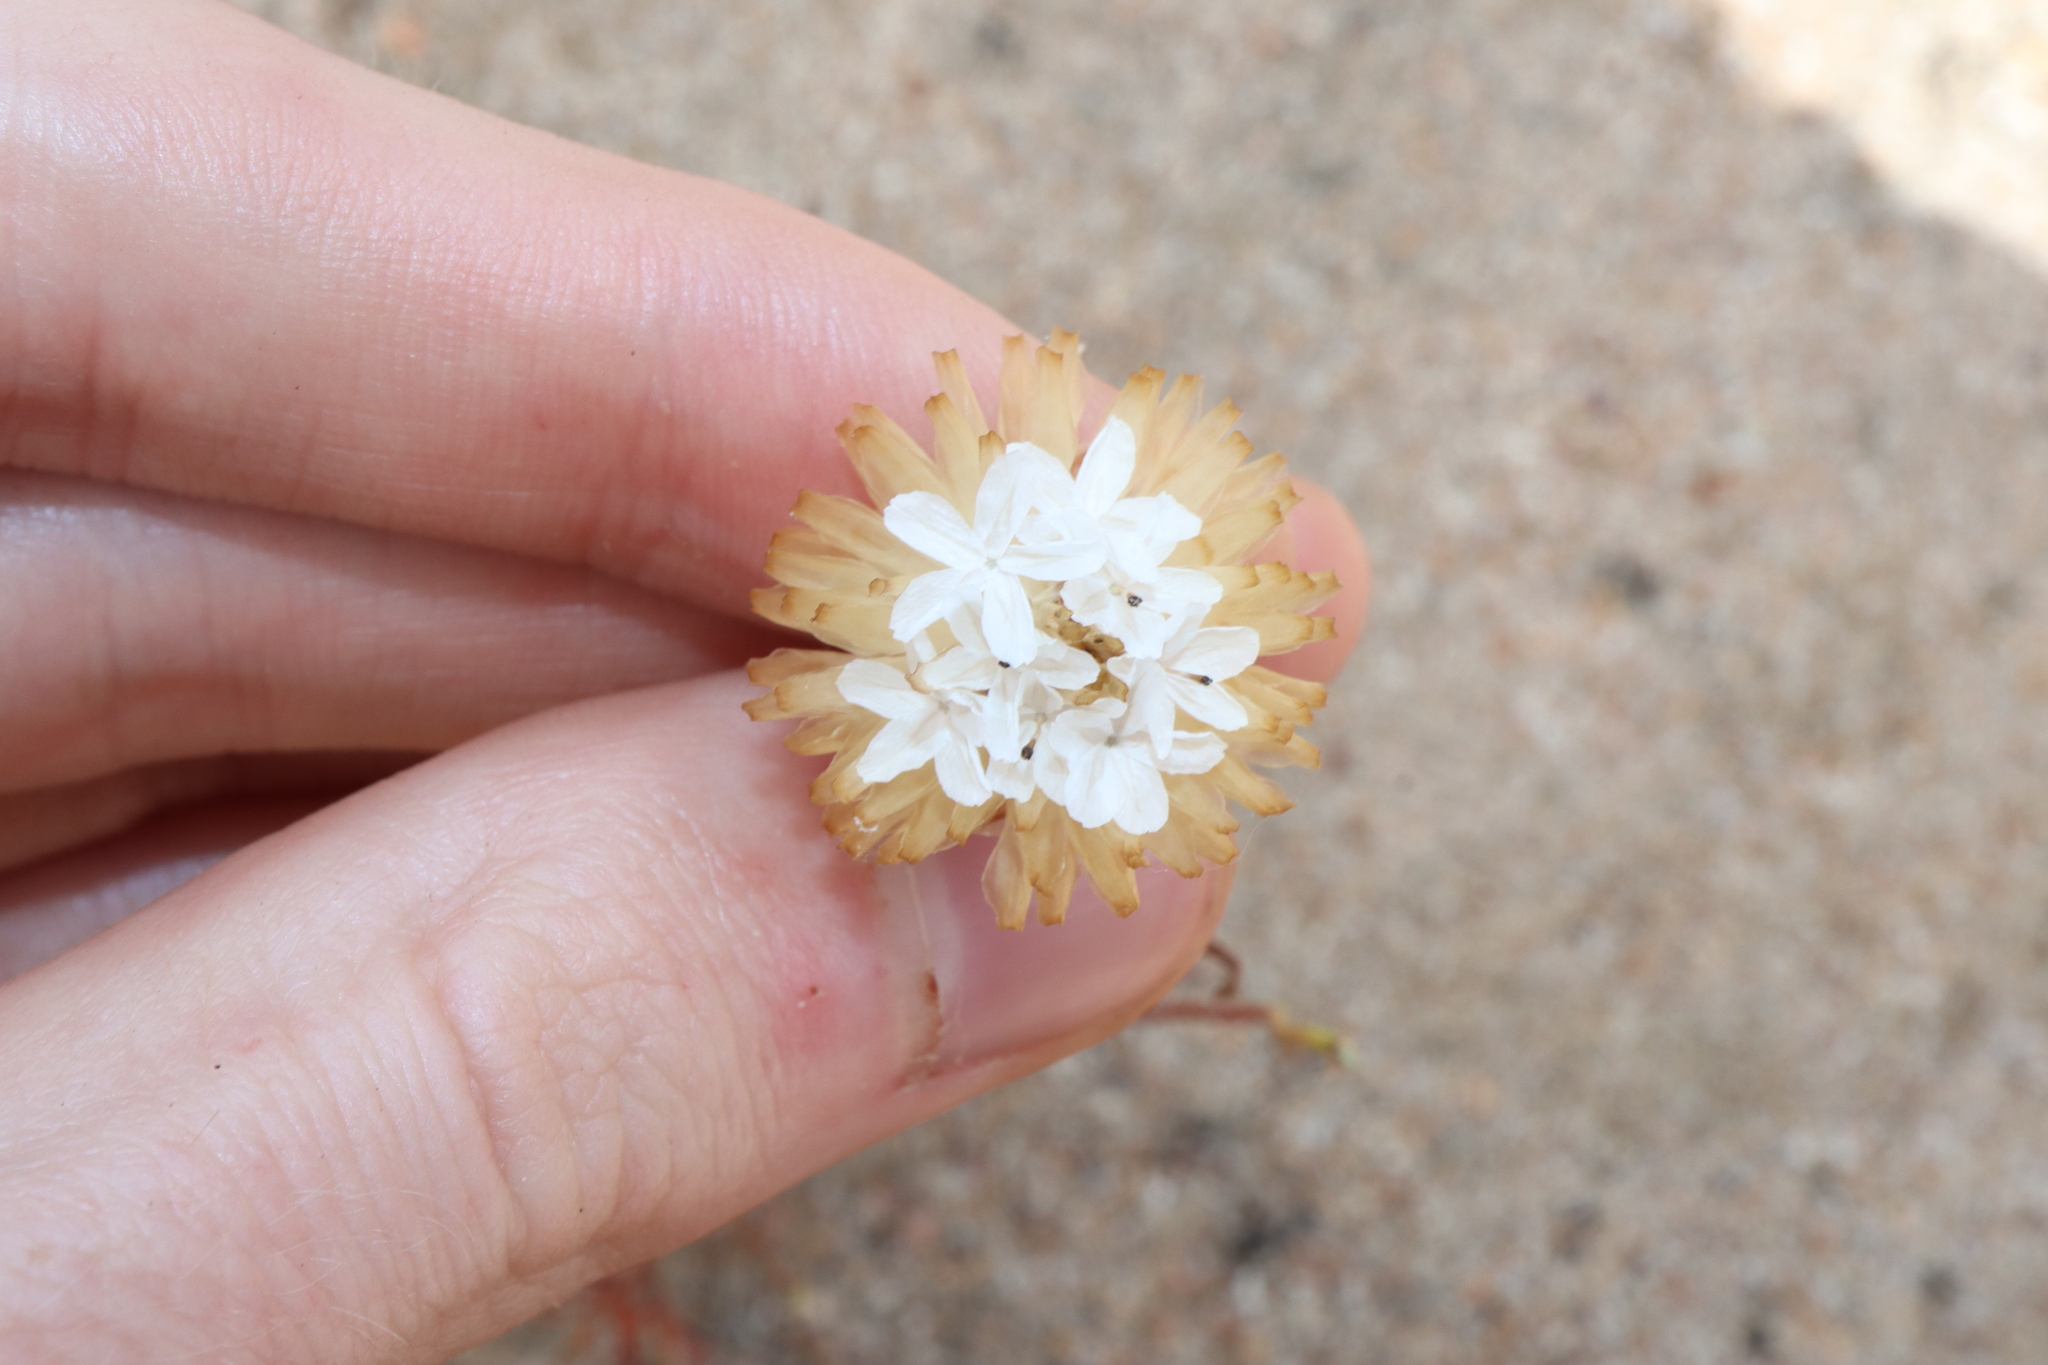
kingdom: Plantae
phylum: Tracheophyta
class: Magnoliopsida
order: Asterales
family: Asteraceae
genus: Ursinia
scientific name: Ursinia anthemoides
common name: Ursinia
